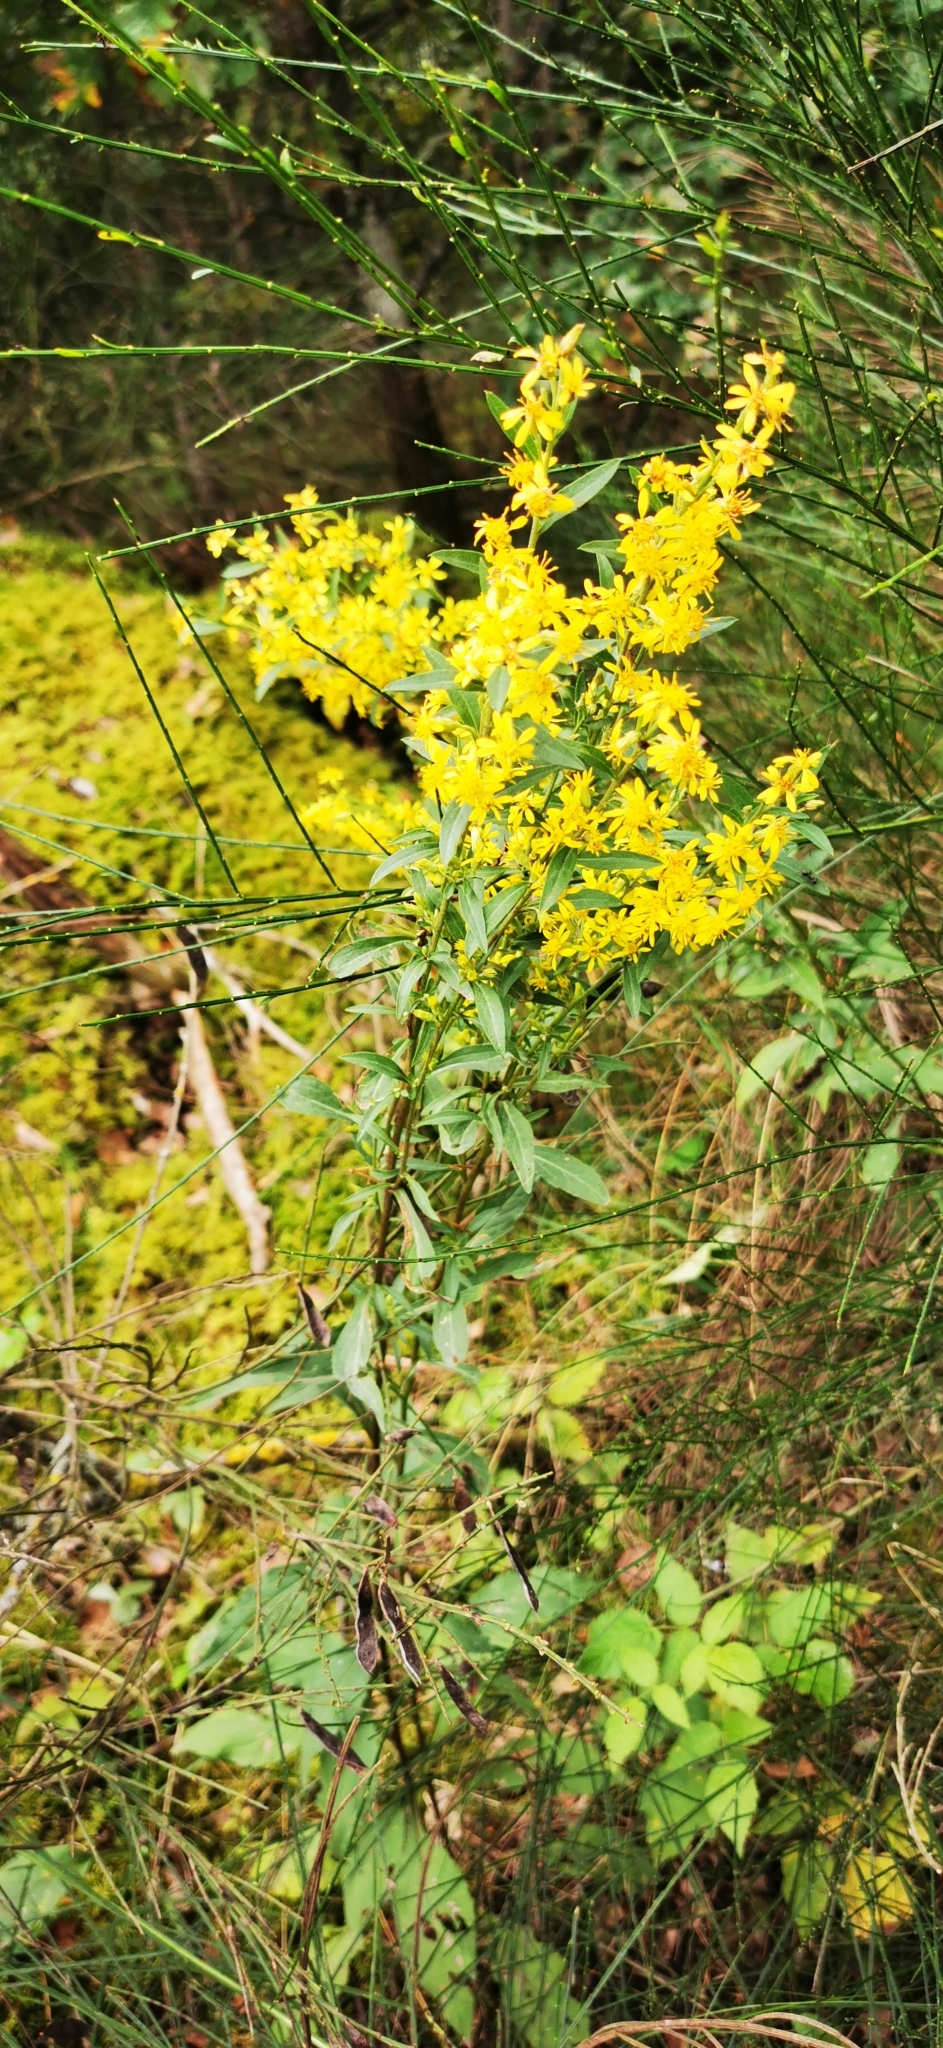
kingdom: Plantae
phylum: Tracheophyta
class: Magnoliopsida
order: Asterales
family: Asteraceae
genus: Solidago
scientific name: Solidago virgaurea
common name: Goldenrod
